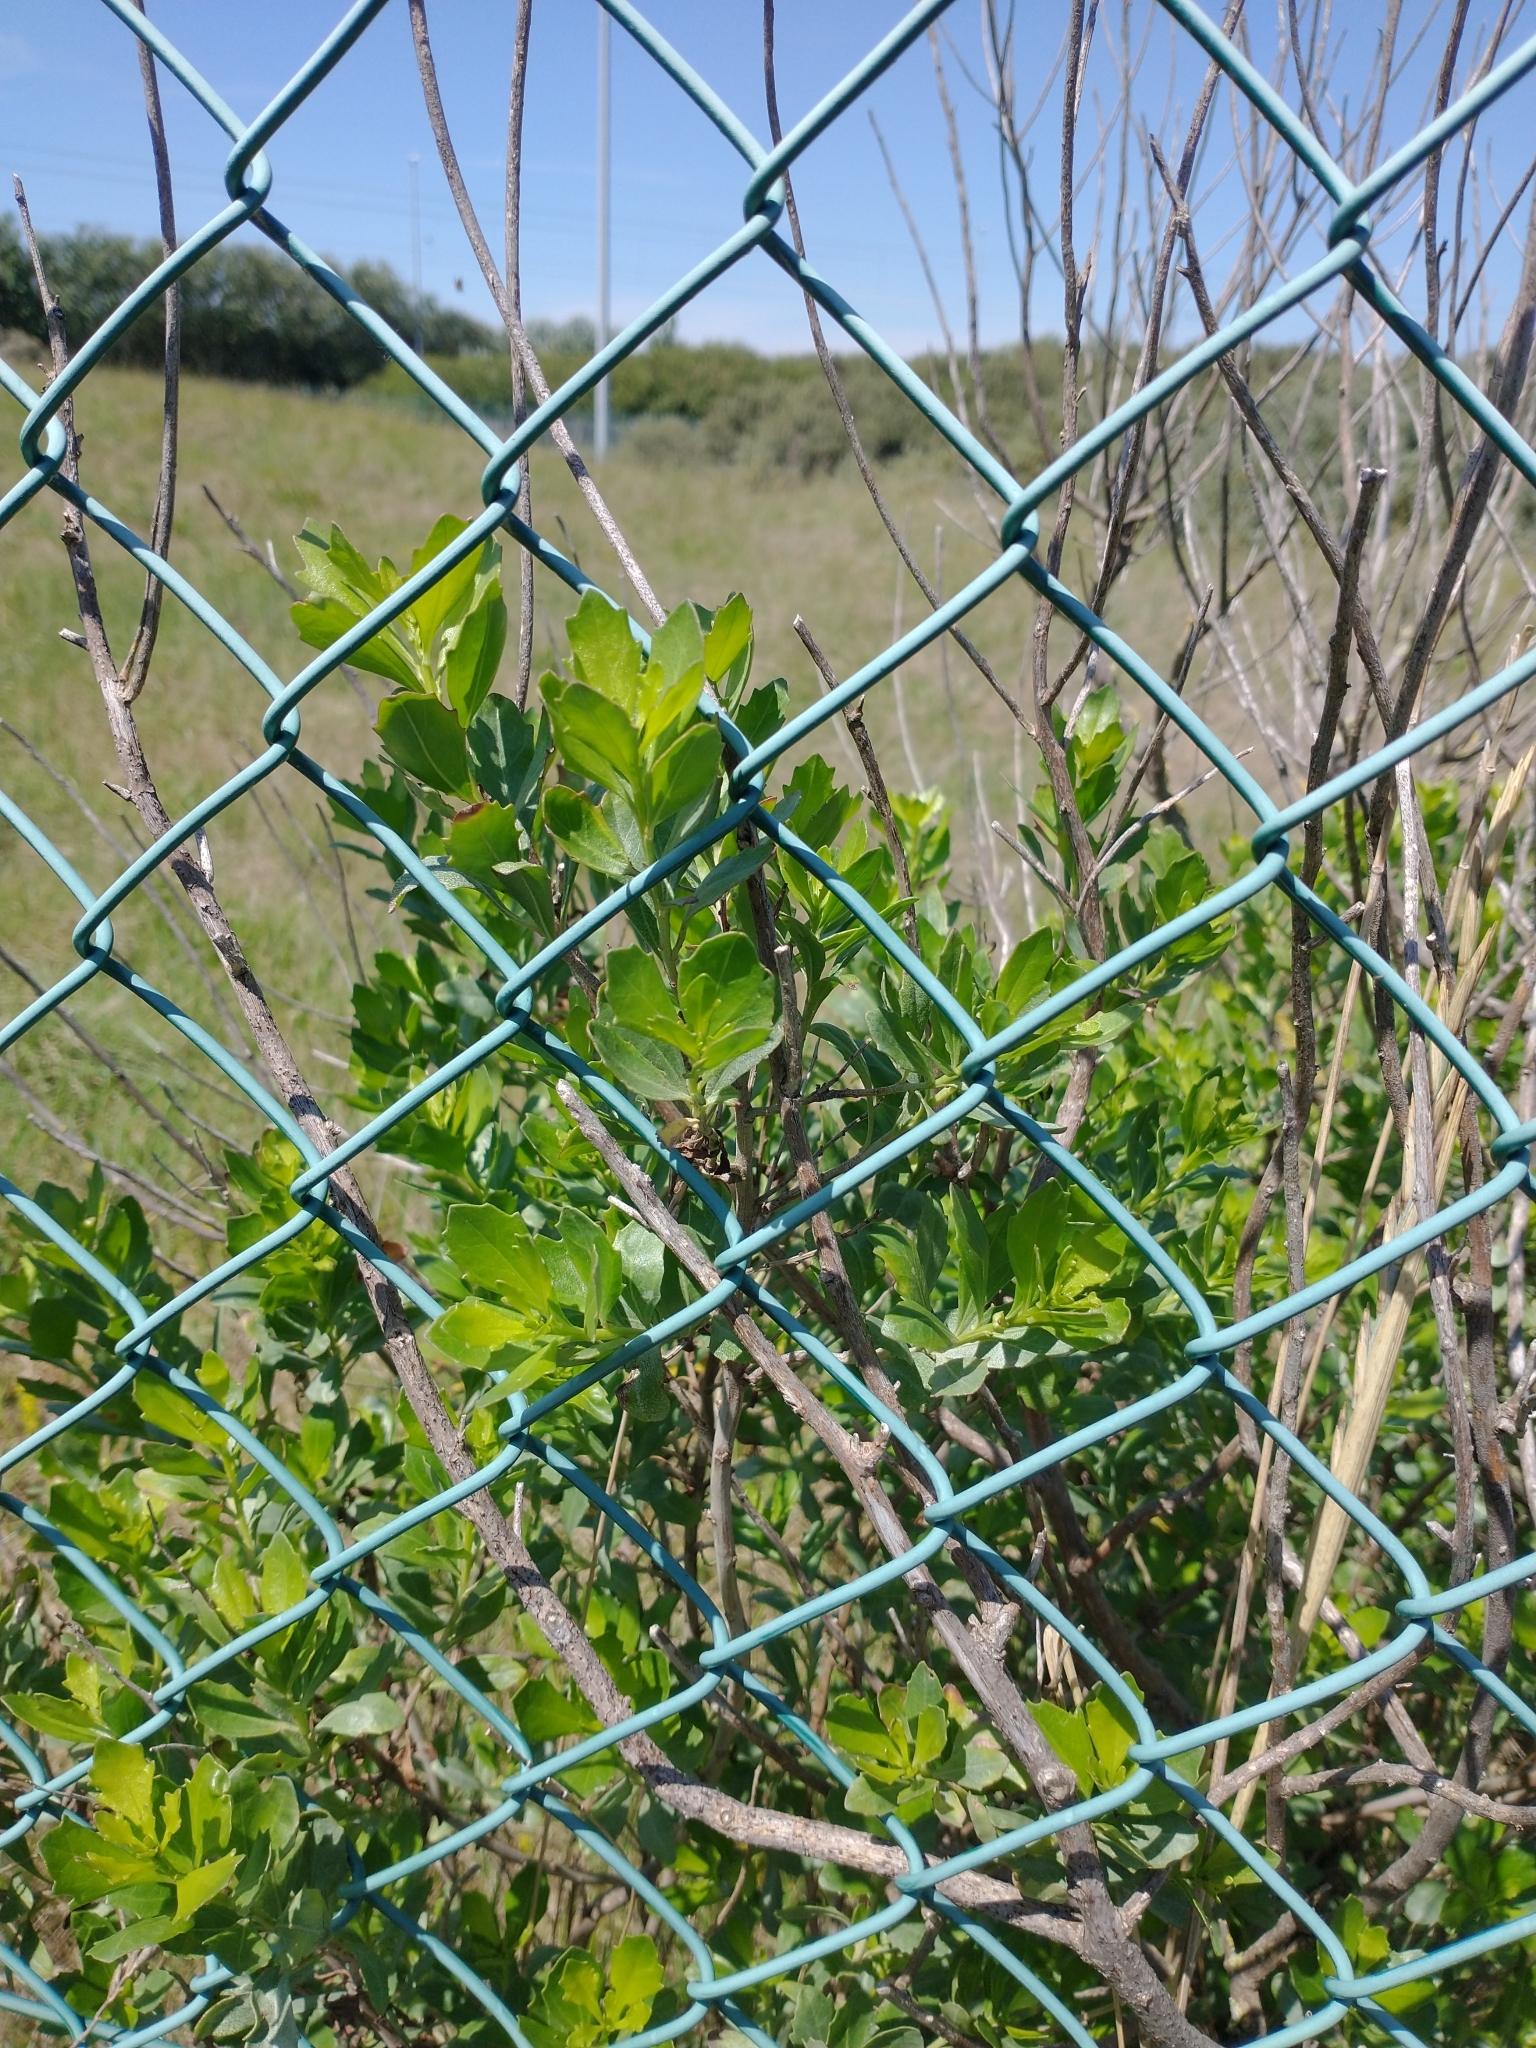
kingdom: Plantae
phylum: Tracheophyta
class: Magnoliopsida
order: Asterales
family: Asteraceae
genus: Baccharis
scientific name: Baccharis halimifolia
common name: Eastern baccharis
